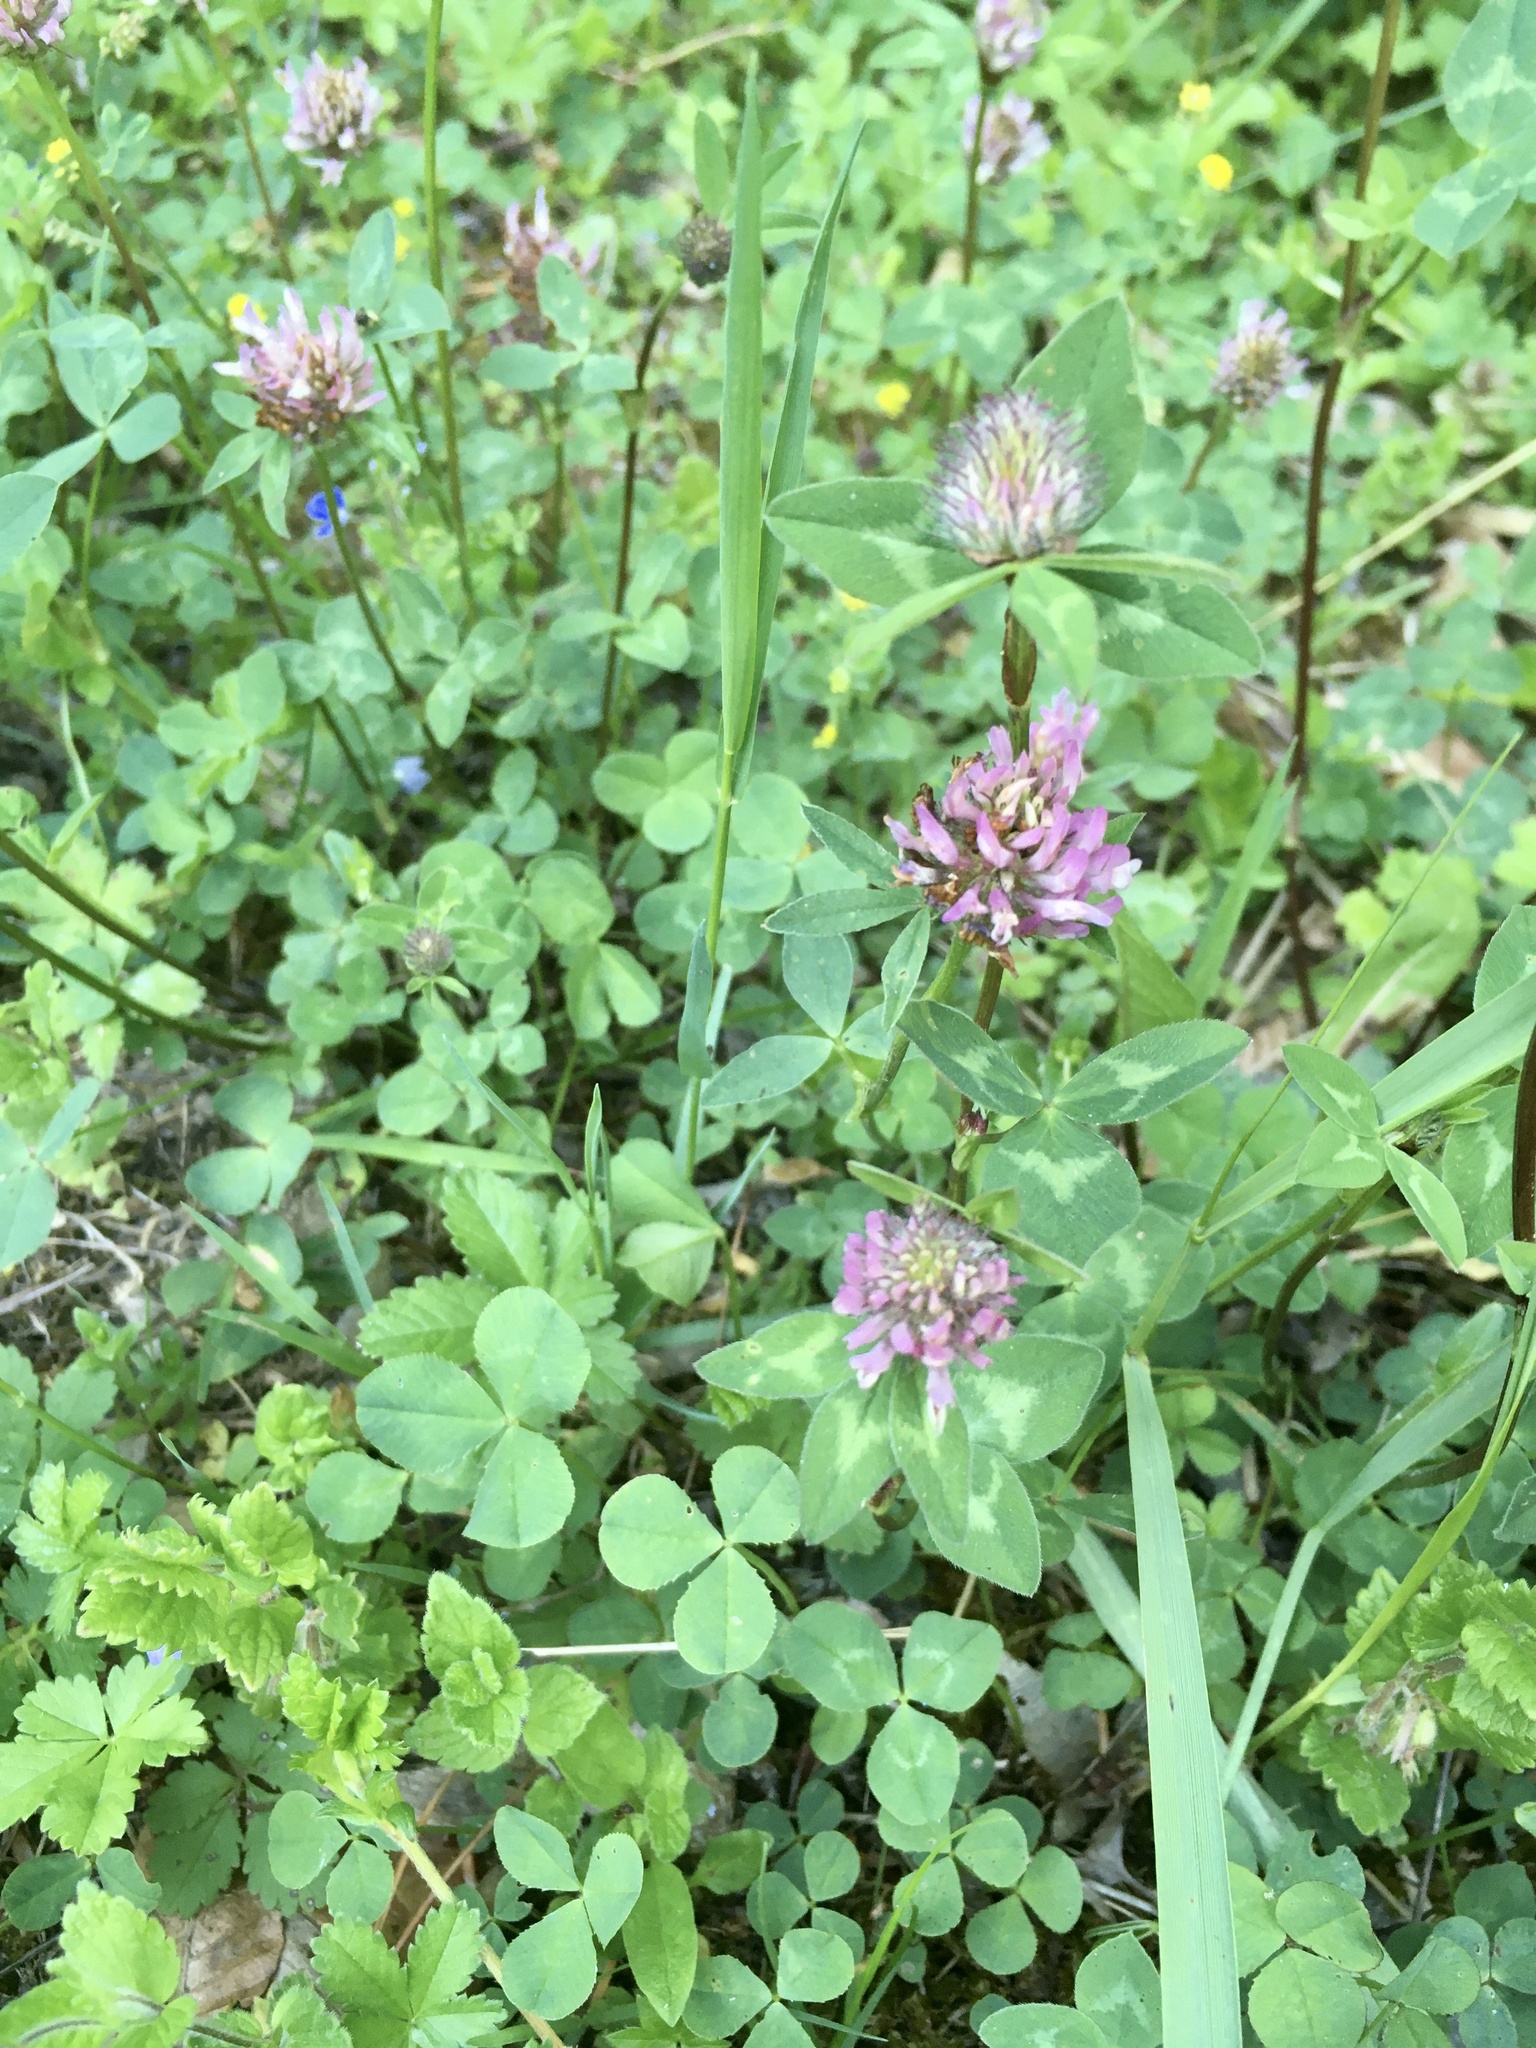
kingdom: Plantae
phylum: Tracheophyta
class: Magnoliopsida
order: Fabales
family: Fabaceae
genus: Trifolium
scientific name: Trifolium pratense
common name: Red clover
